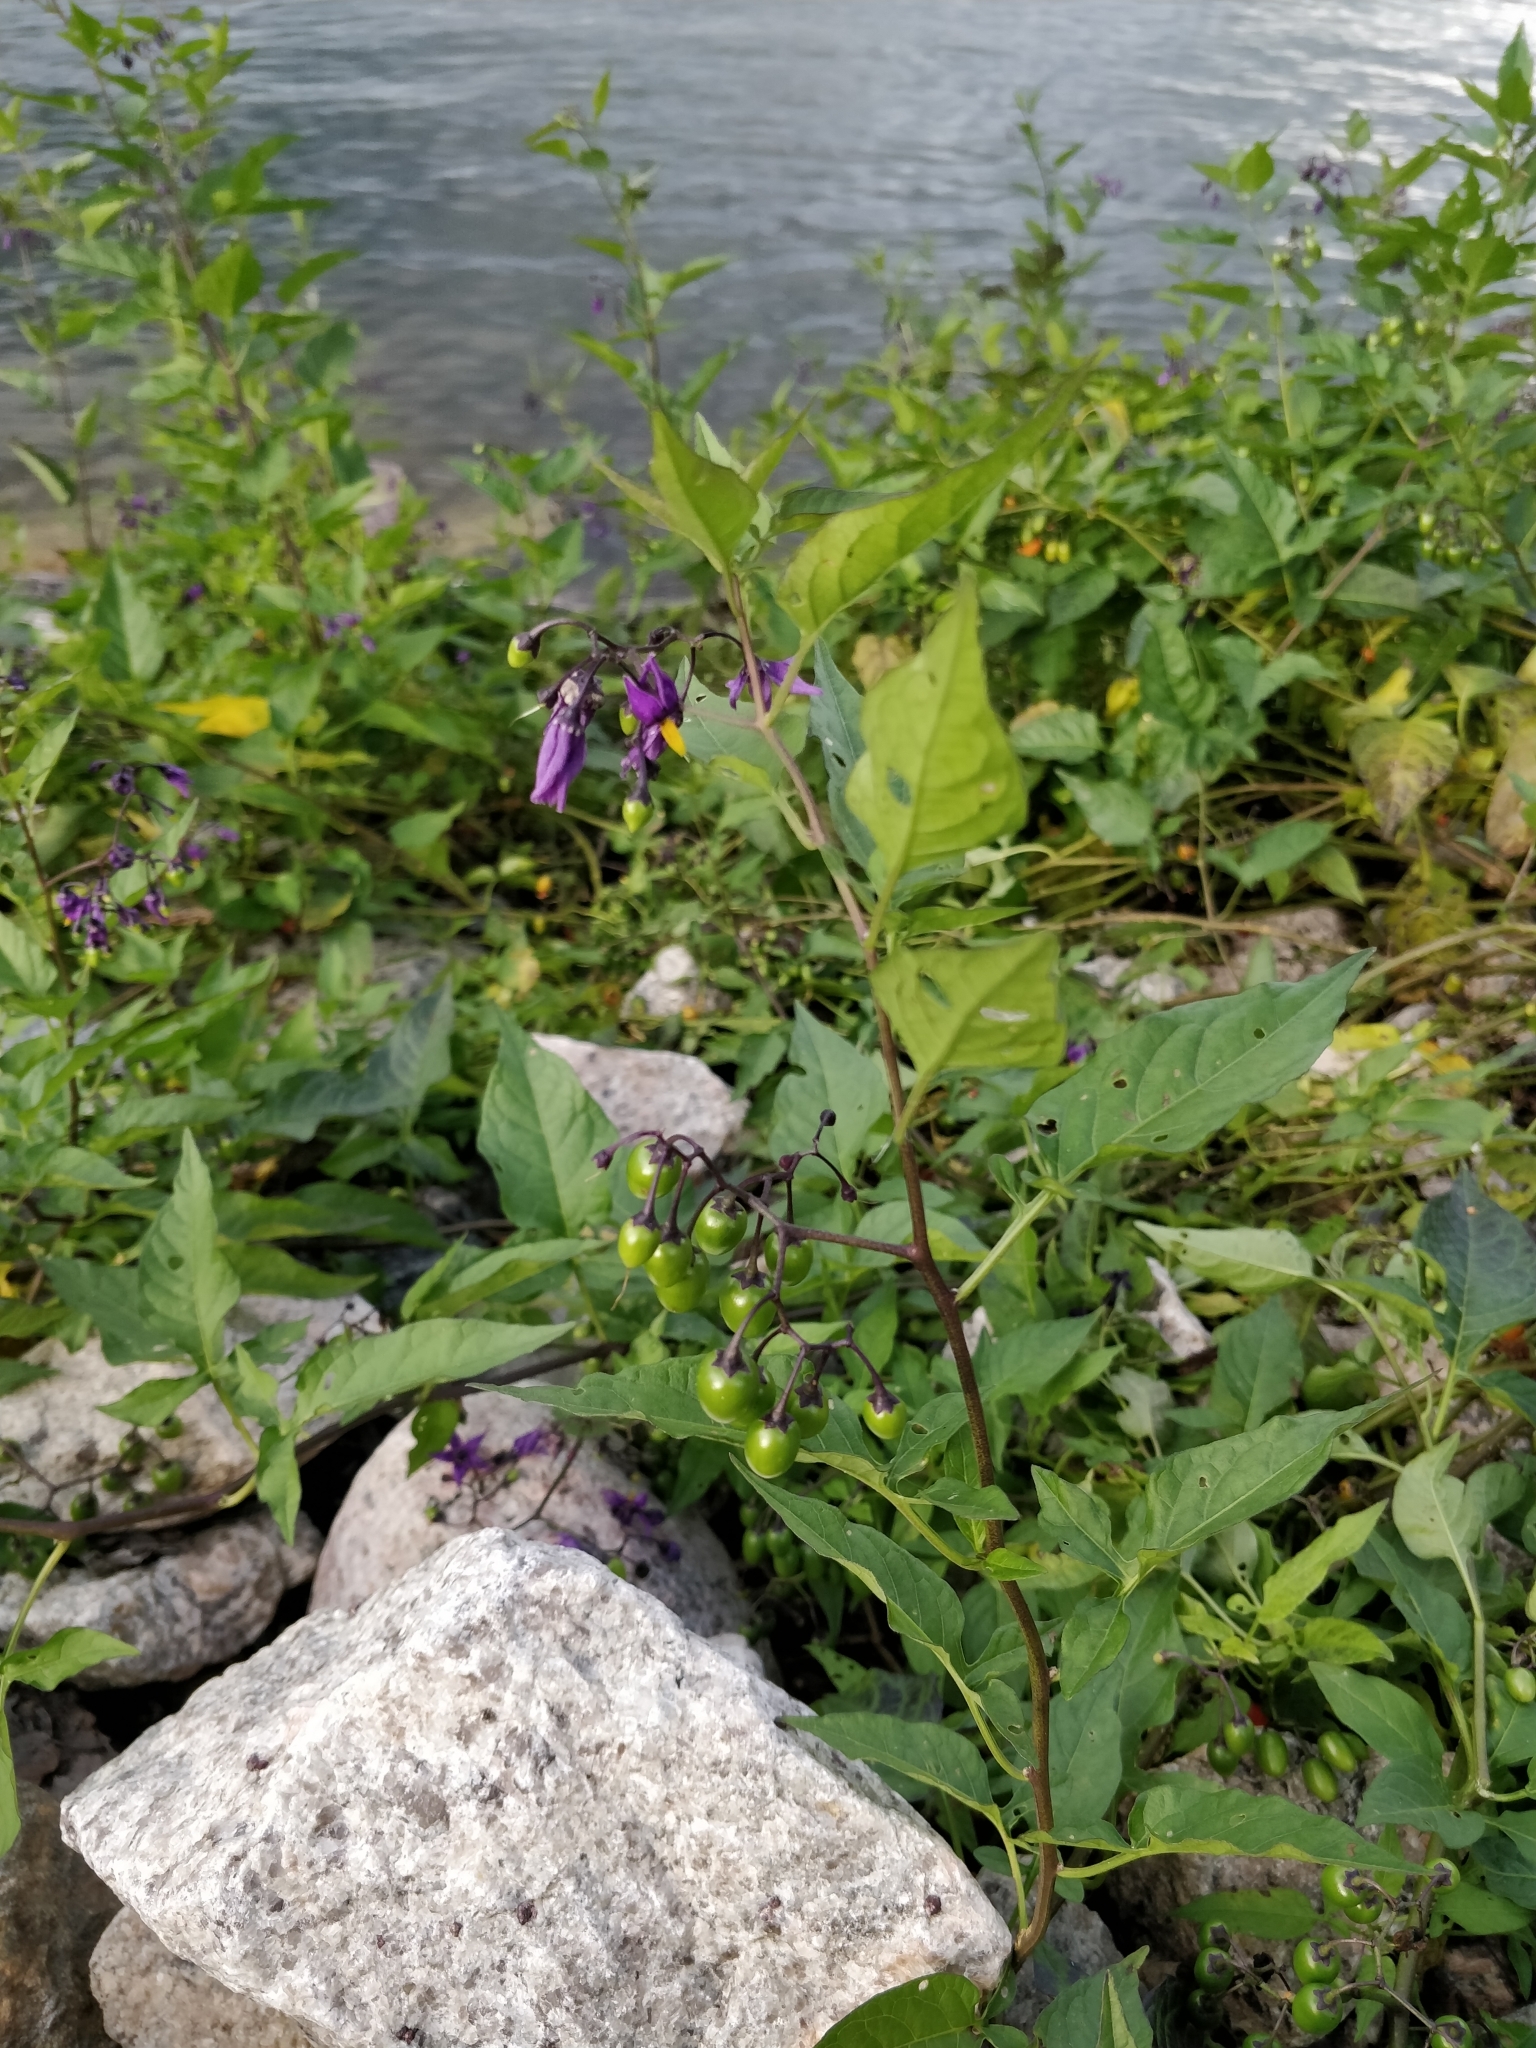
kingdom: Plantae
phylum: Tracheophyta
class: Magnoliopsida
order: Solanales
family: Solanaceae
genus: Solanum
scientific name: Solanum dulcamara
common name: Climbing nightshade
